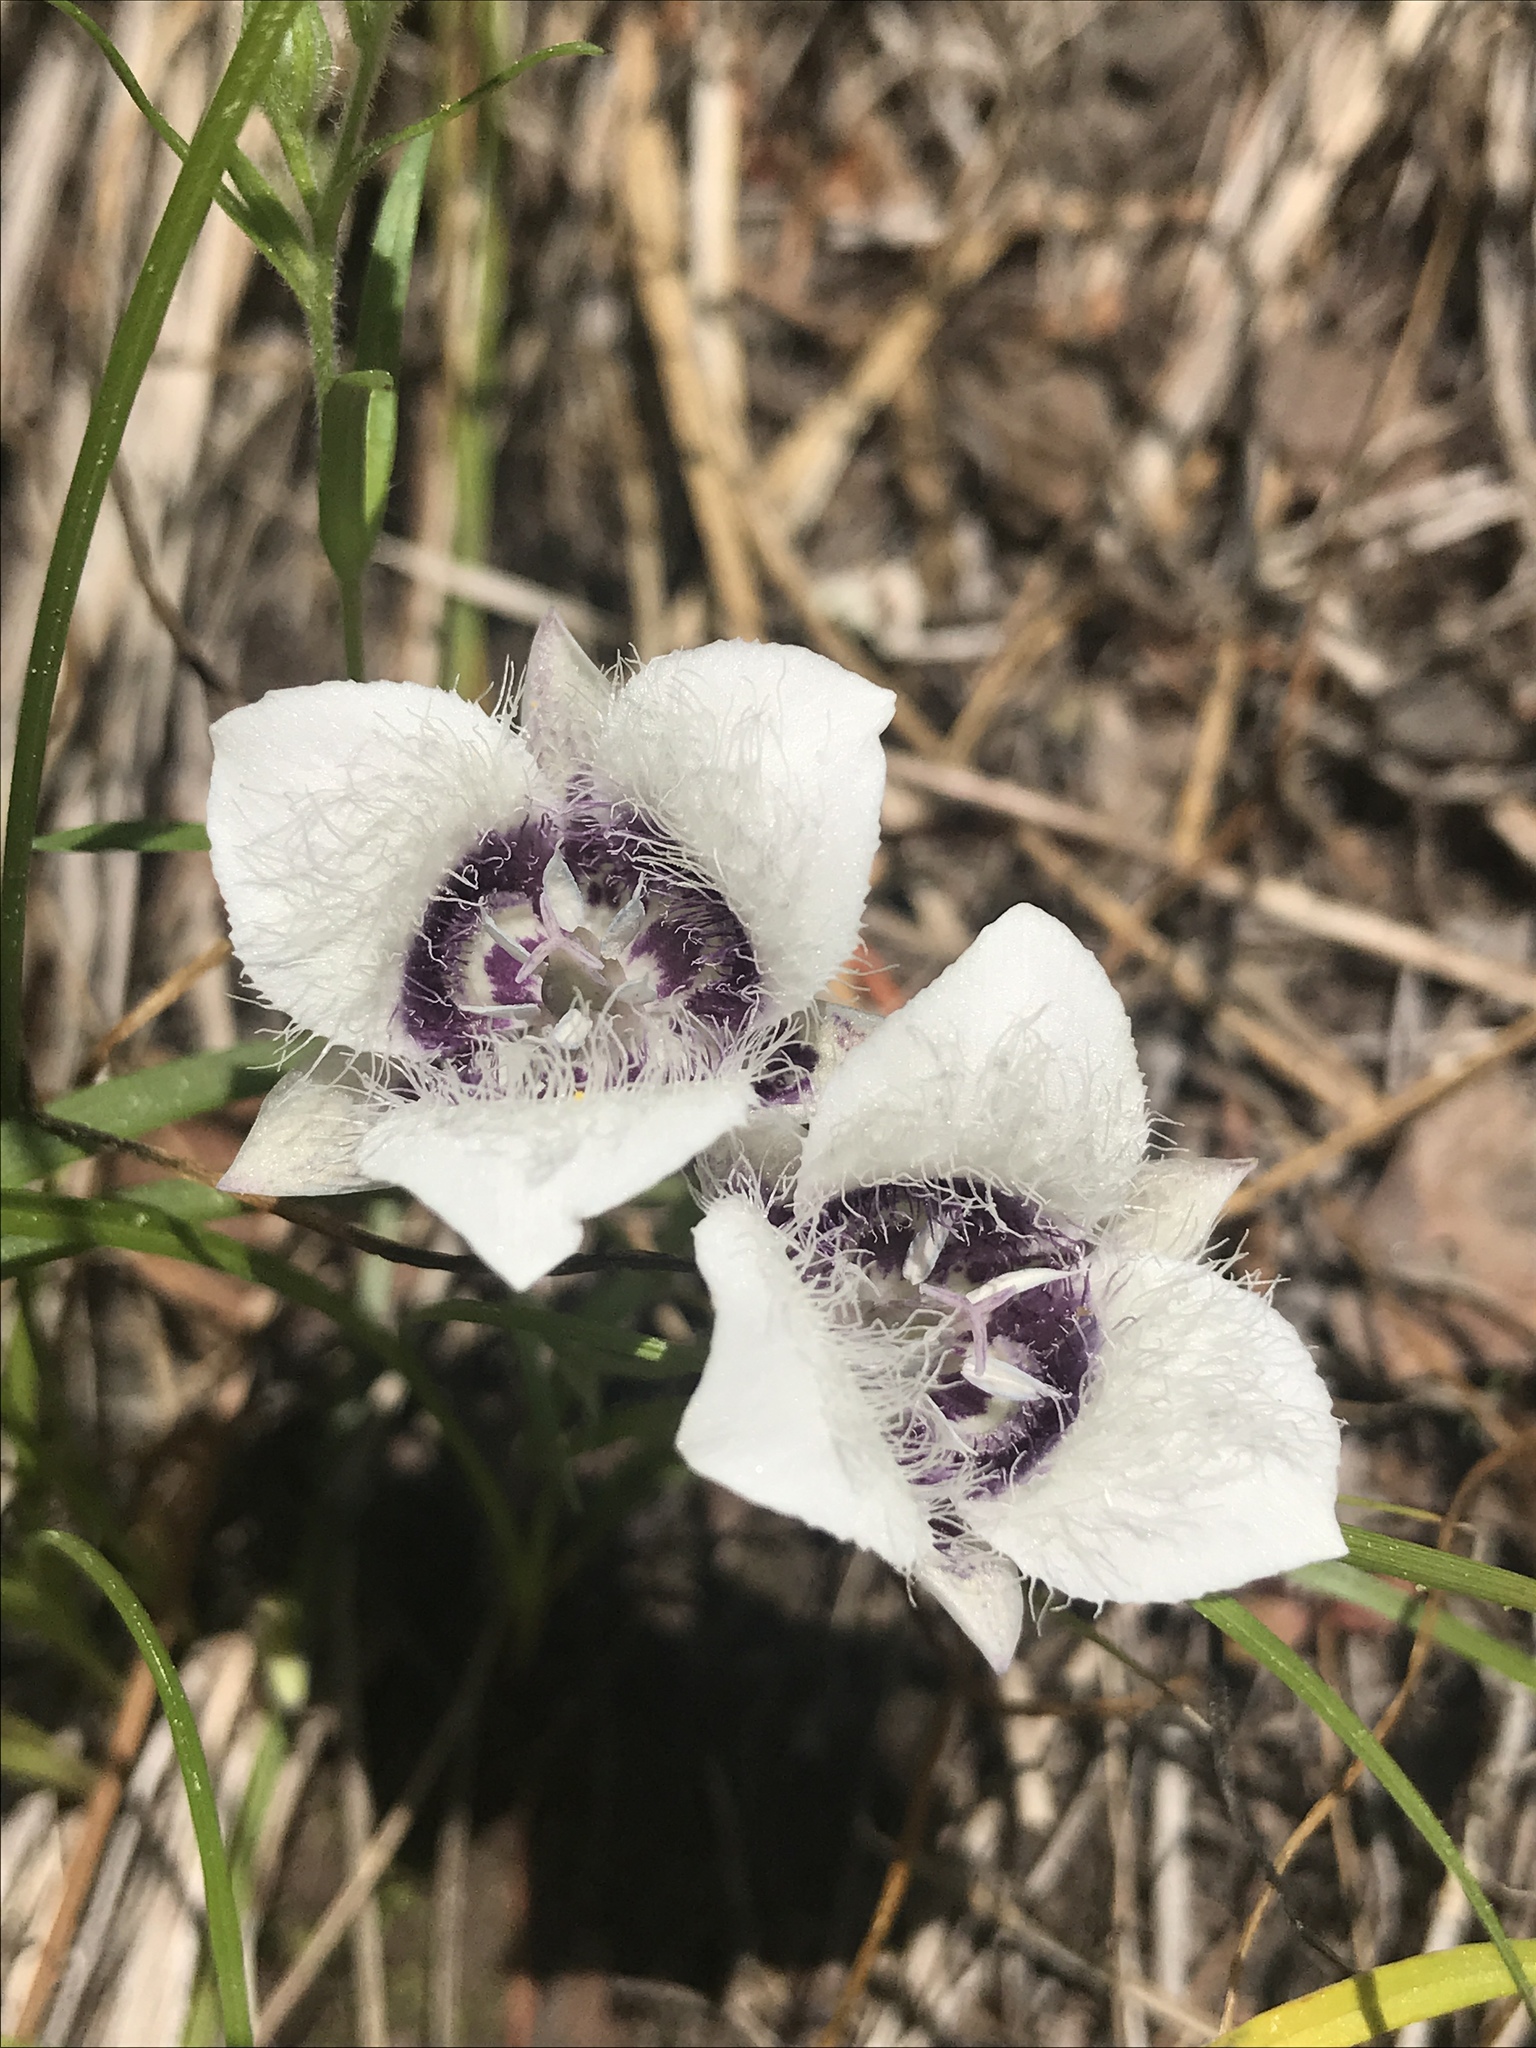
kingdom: Plantae
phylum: Tracheophyta
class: Liliopsida
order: Liliales
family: Liliaceae
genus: Calochortus
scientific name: Calochortus elegans
